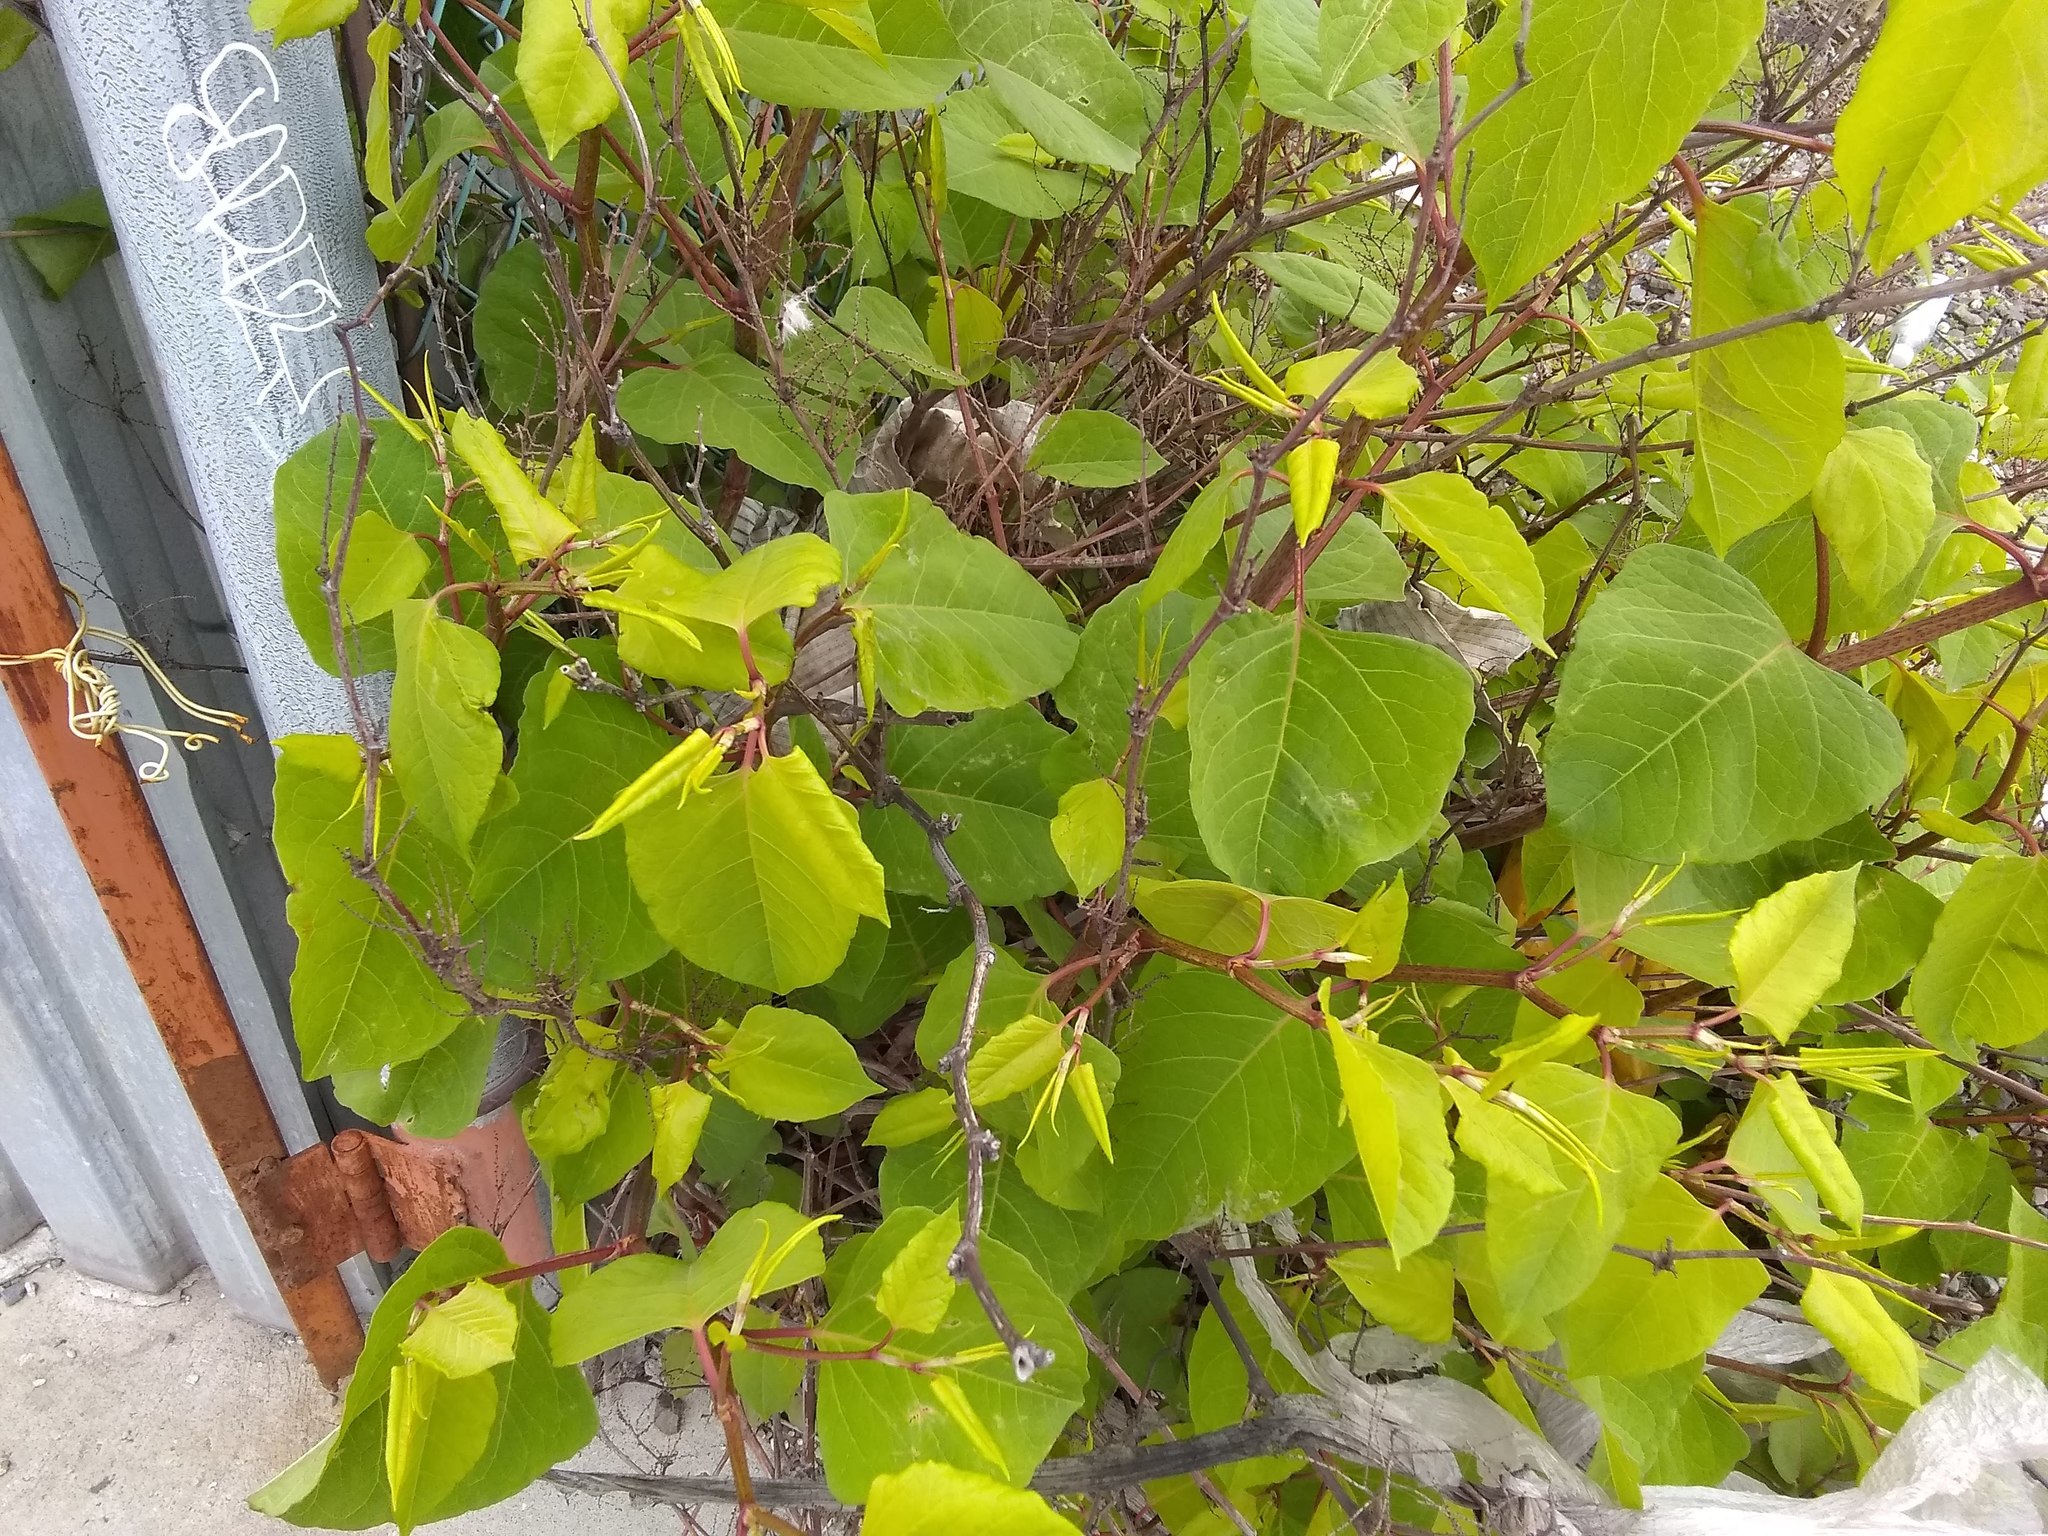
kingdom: Plantae
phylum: Tracheophyta
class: Magnoliopsida
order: Caryophyllales
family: Polygonaceae
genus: Reynoutria
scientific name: Reynoutria japonica
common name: Japanese knotweed
